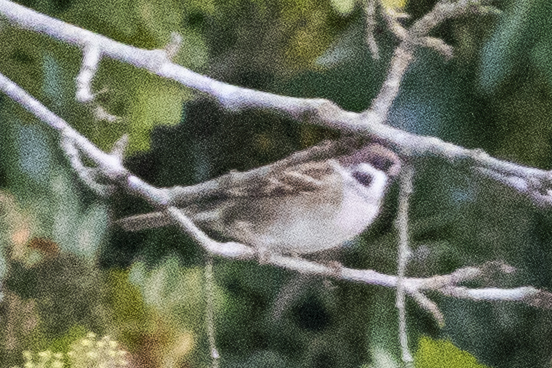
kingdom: Animalia
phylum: Chordata
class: Aves
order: Passeriformes
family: Passeridae
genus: Passer
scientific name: Passer montanus
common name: Eurasian tree sparrow
